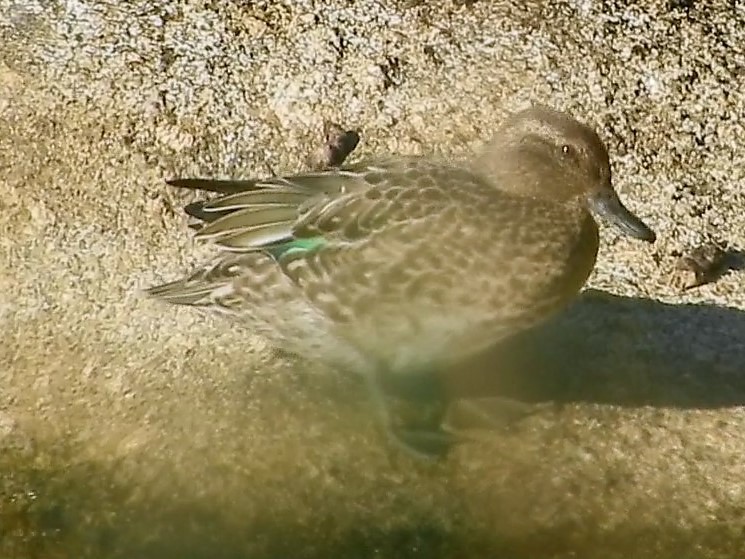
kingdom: Animalia
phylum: Chordata
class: Aves
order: Anseriformes
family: Anatidae
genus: Anas
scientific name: Anas crecca
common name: Eurasian teal
